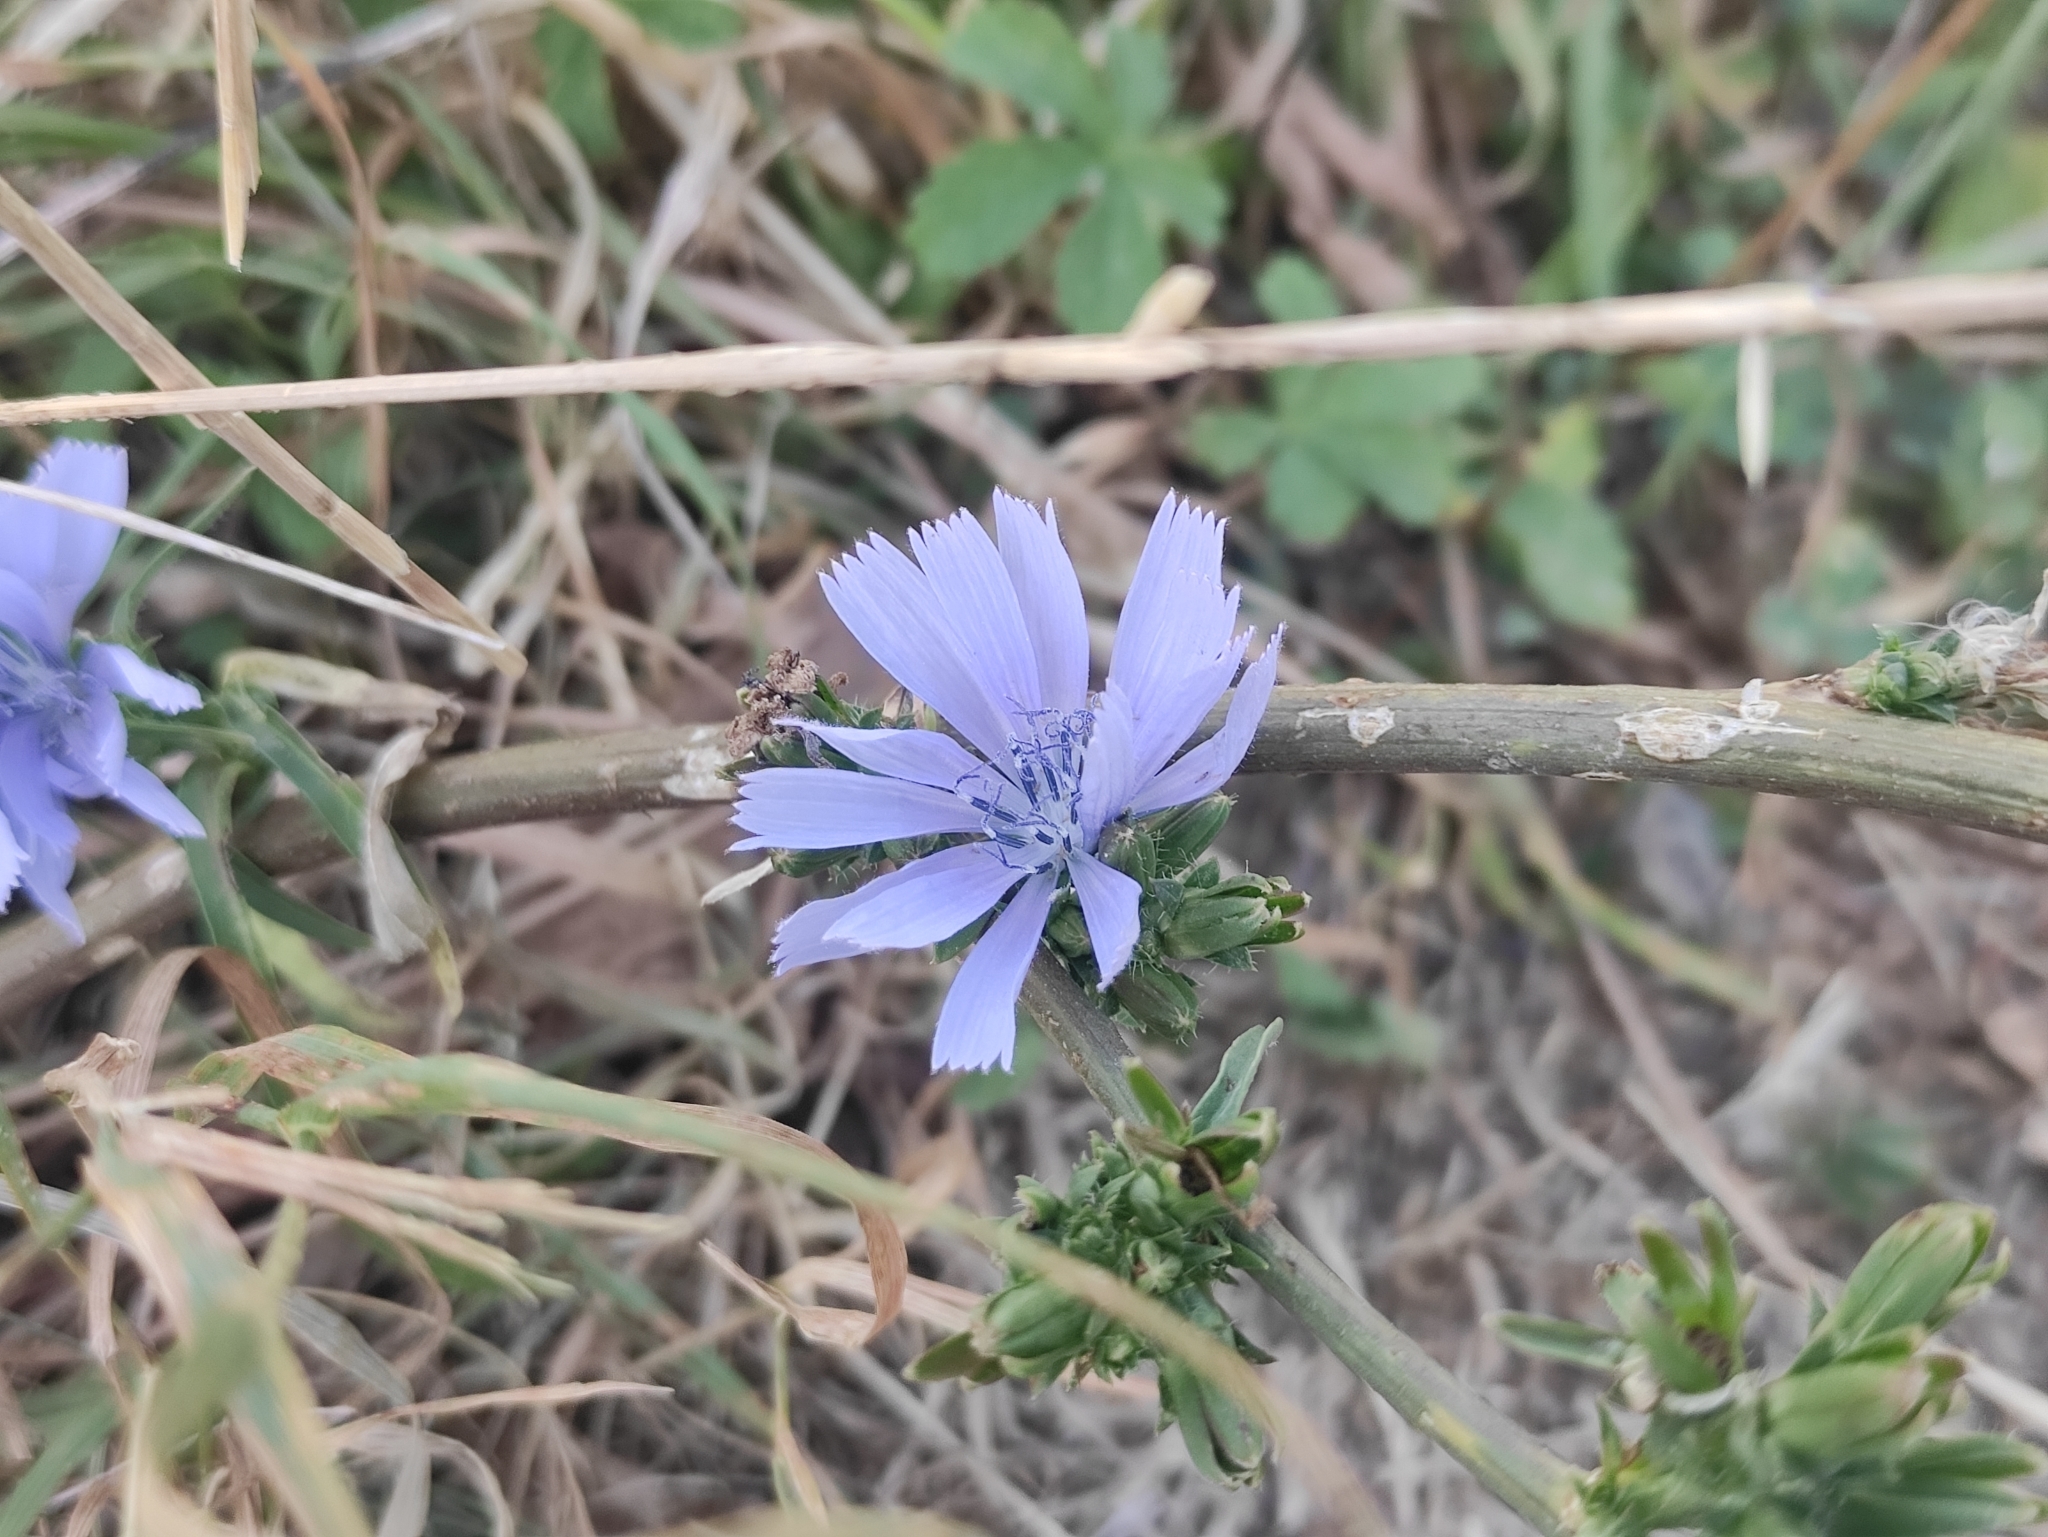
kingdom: Plantae
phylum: Tracheophyta
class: Magnoliopsida
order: Asterales
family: Asteraceae
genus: Cichorium
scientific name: Cichorium intybus
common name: Chicory
